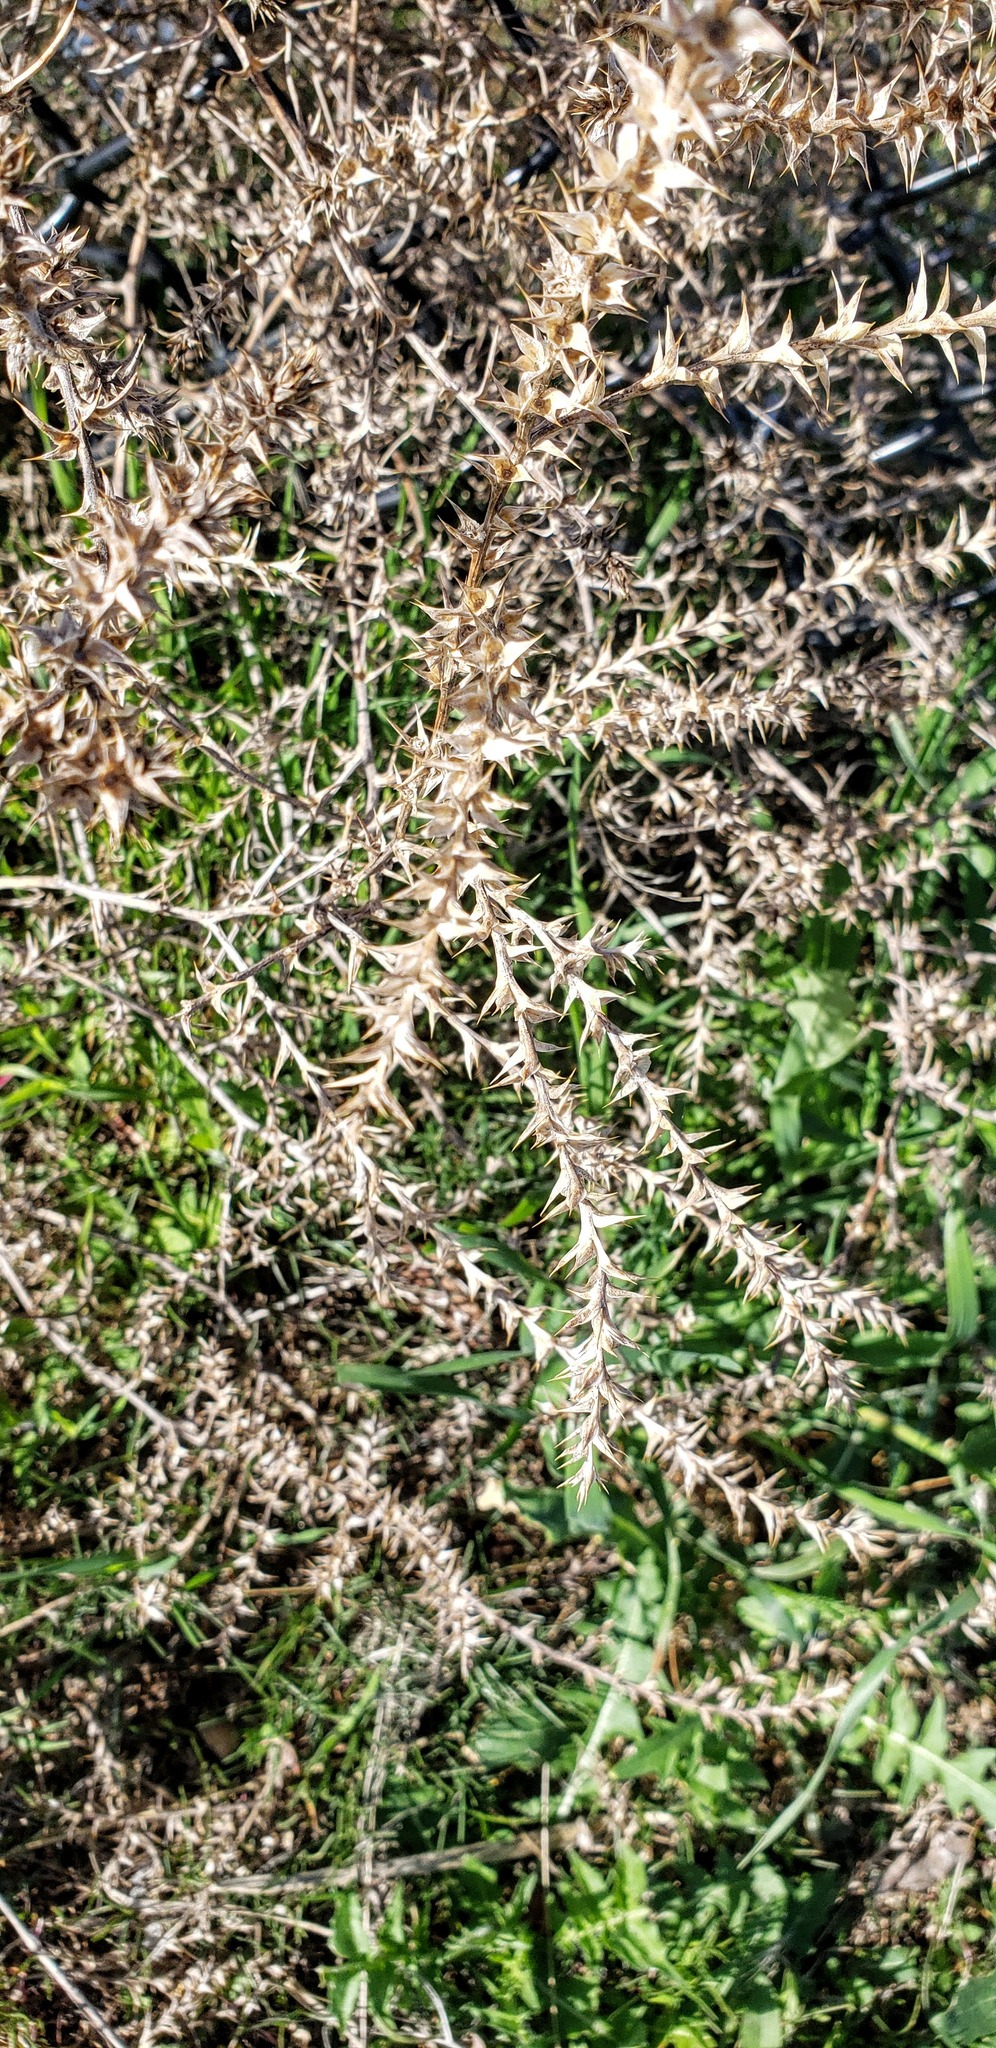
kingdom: Plantae
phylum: Tracheophyta
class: Magnoliopsida
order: Caryophyllales
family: Amaranthaceae
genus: Salsola
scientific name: Salsola tragus
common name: Prickly russian thistle
